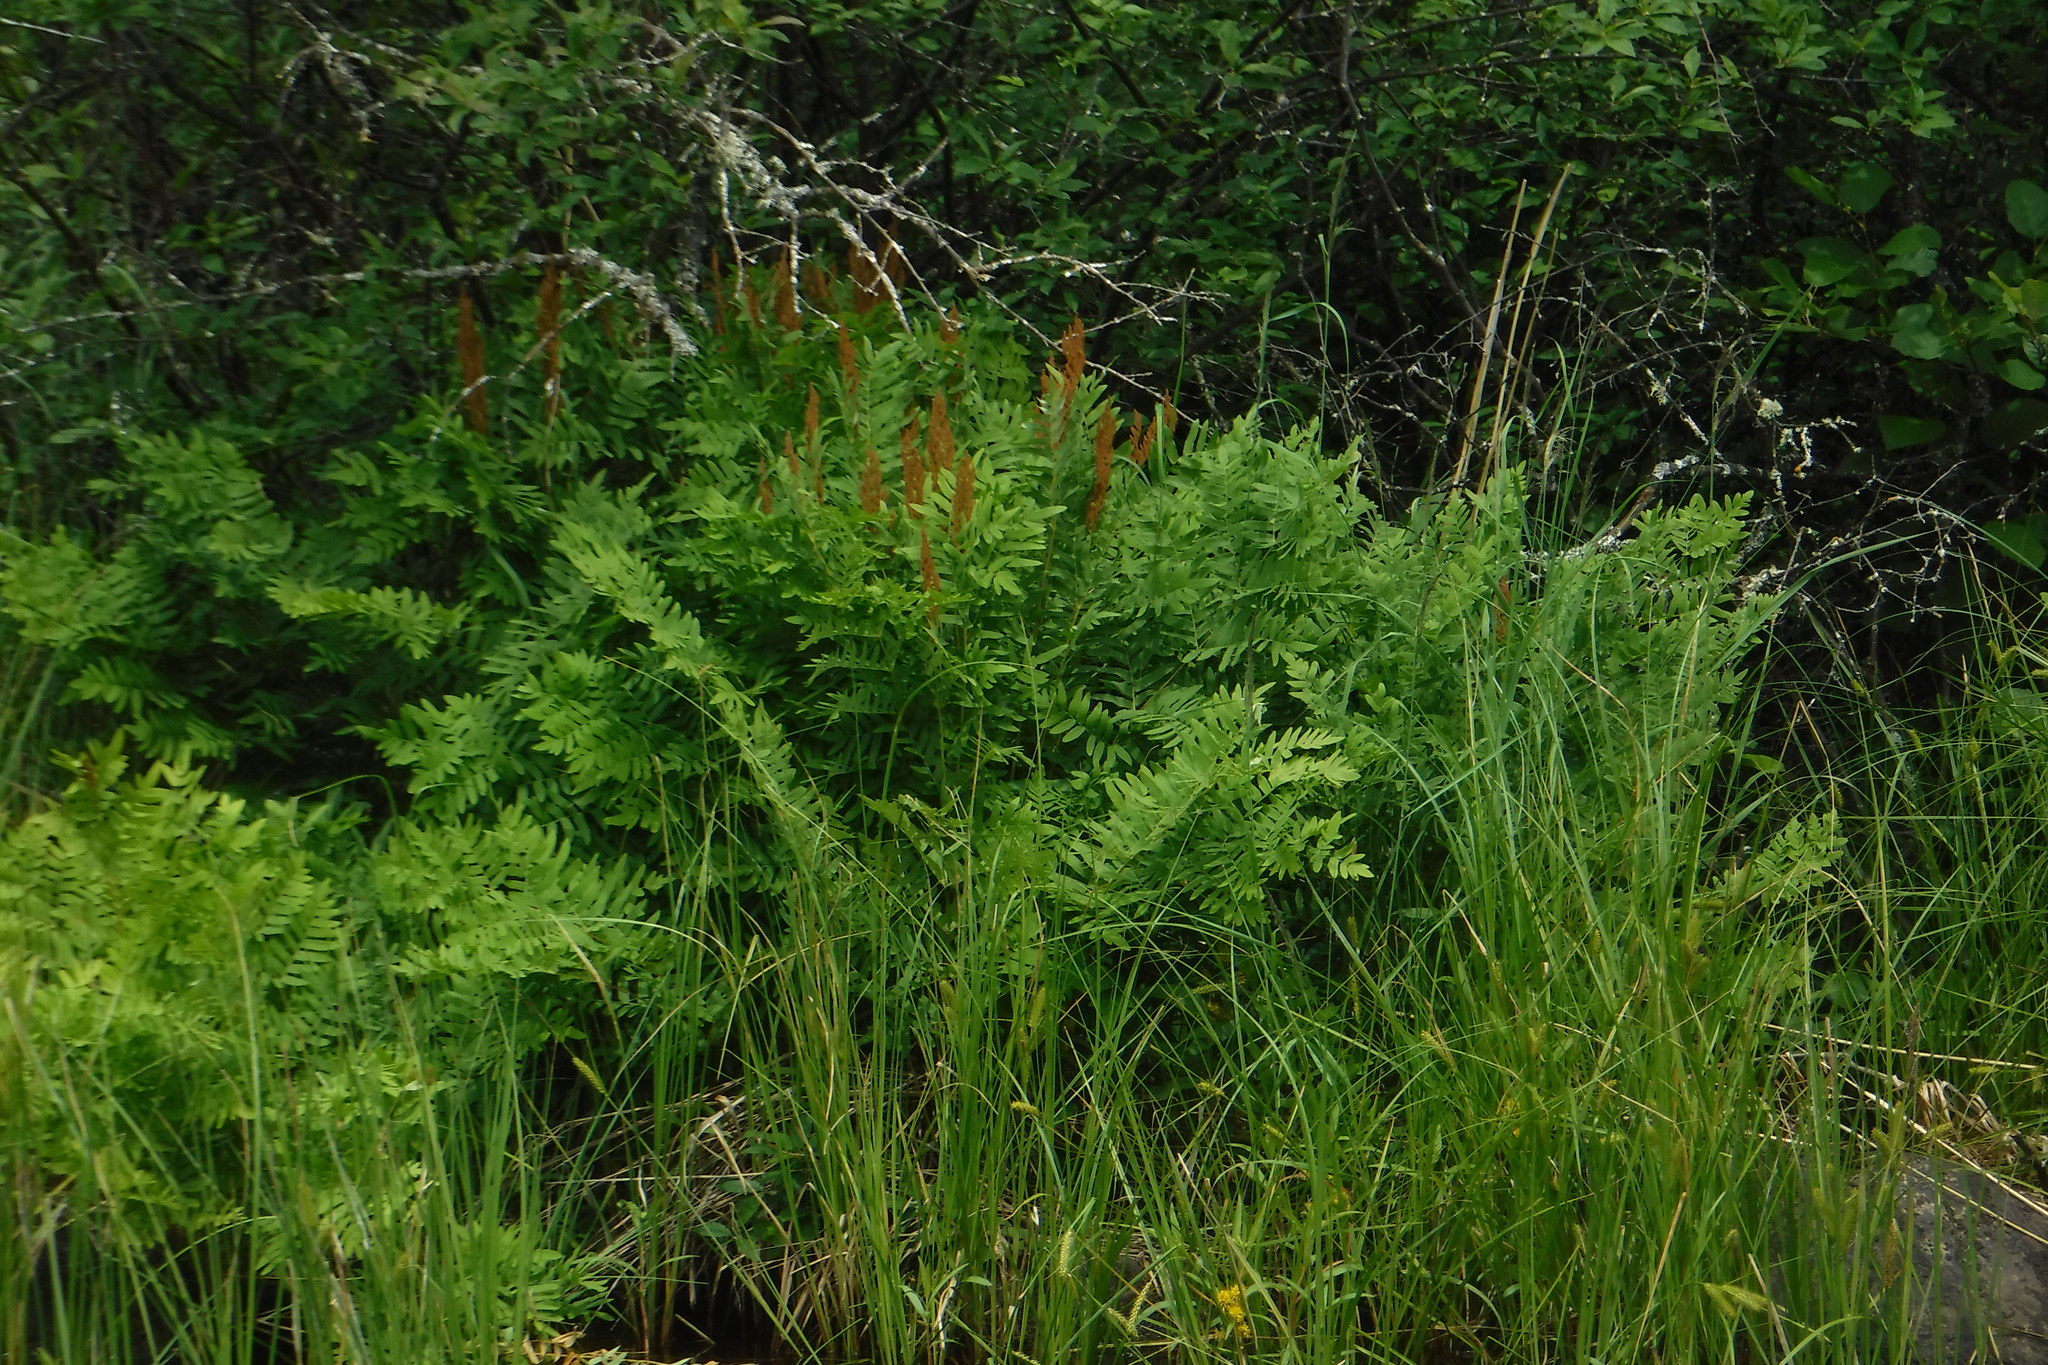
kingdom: Plantae
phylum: Tracheophyta
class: Polypodiopsida
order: Osmundales
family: Osmundaceae
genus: Osmunda
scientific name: Osmunda spectabilis
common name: American royal fern
